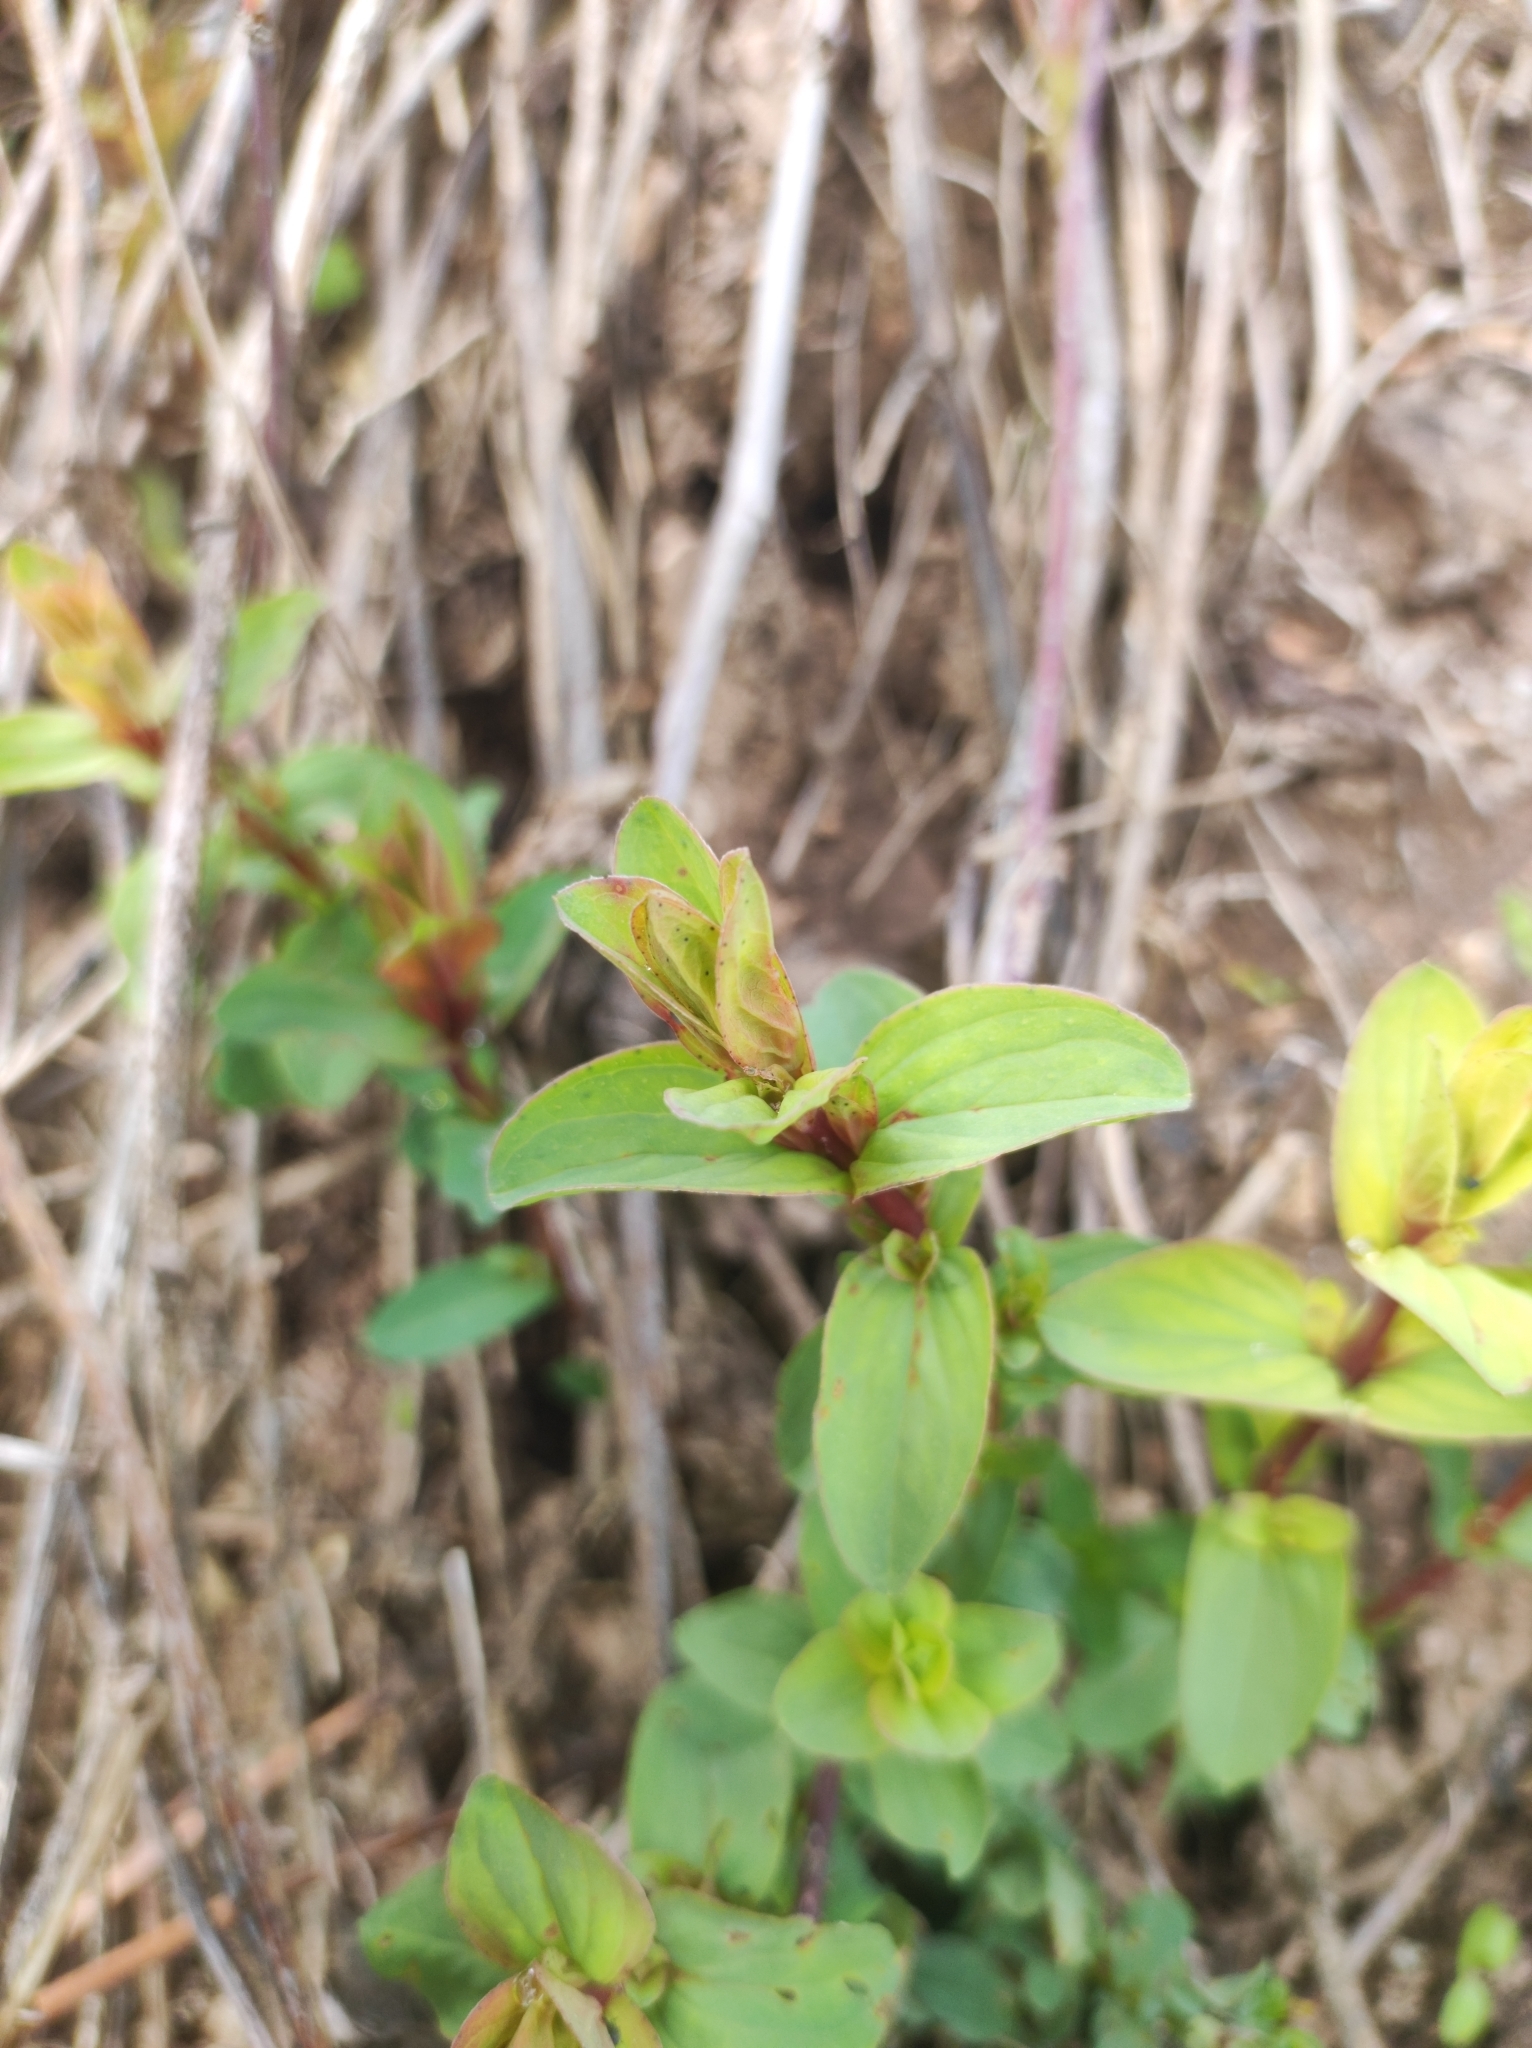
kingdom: Plantae
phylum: Tracheophyta
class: Magnoliopsida
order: Malpighiales
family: Hypericaceae
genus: Hypericum
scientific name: Hypericum perforatum
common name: Common st. johnswort
